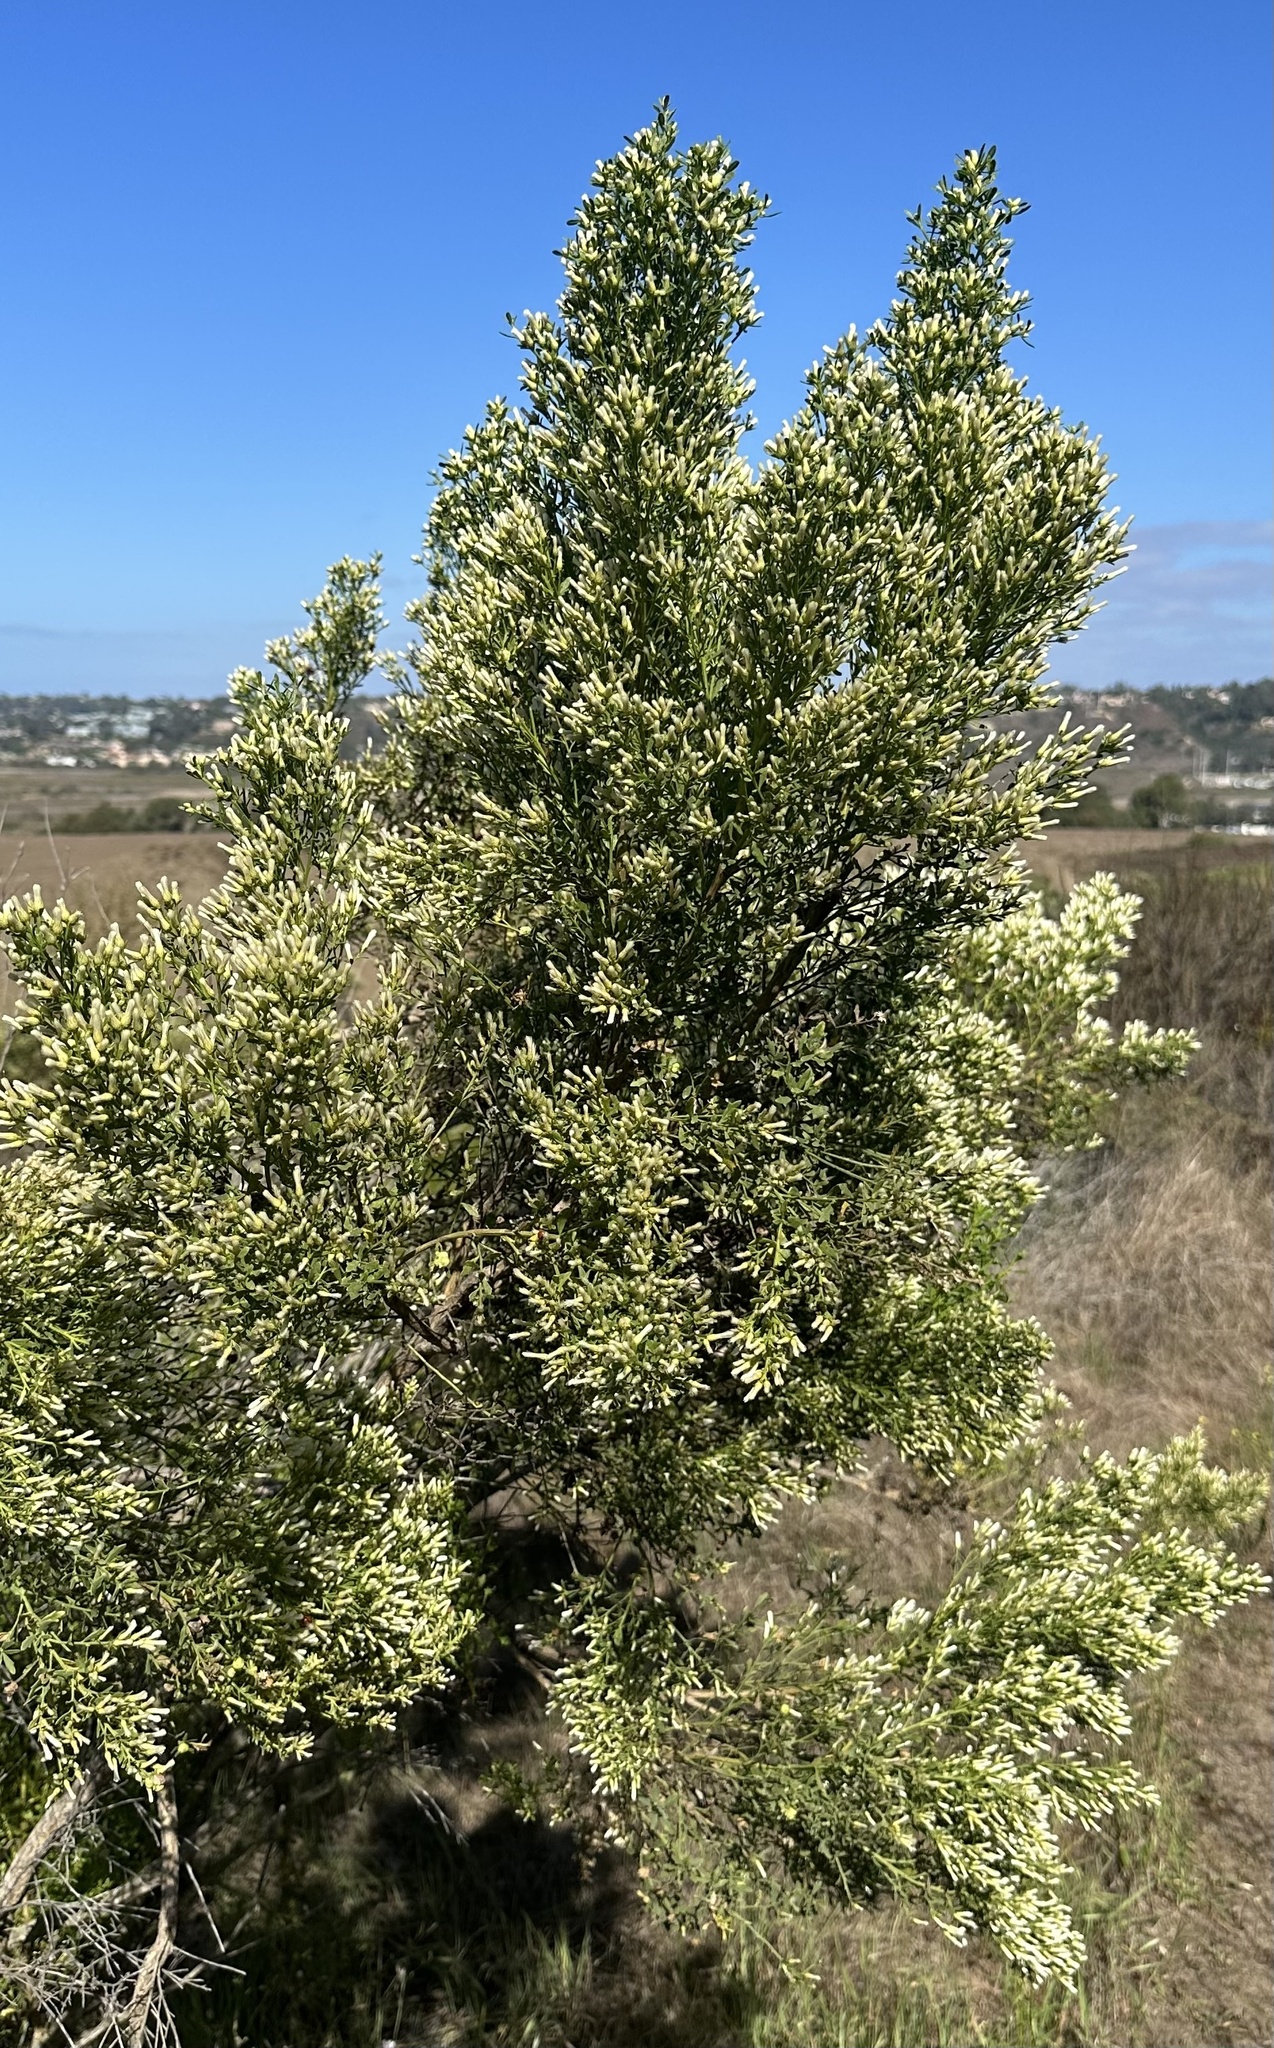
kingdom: Animalia
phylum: Arthropoda
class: Insecta
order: Diptera
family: Cecidomyiidae
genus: Rhopalomyia
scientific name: Rhopalomyia californica
